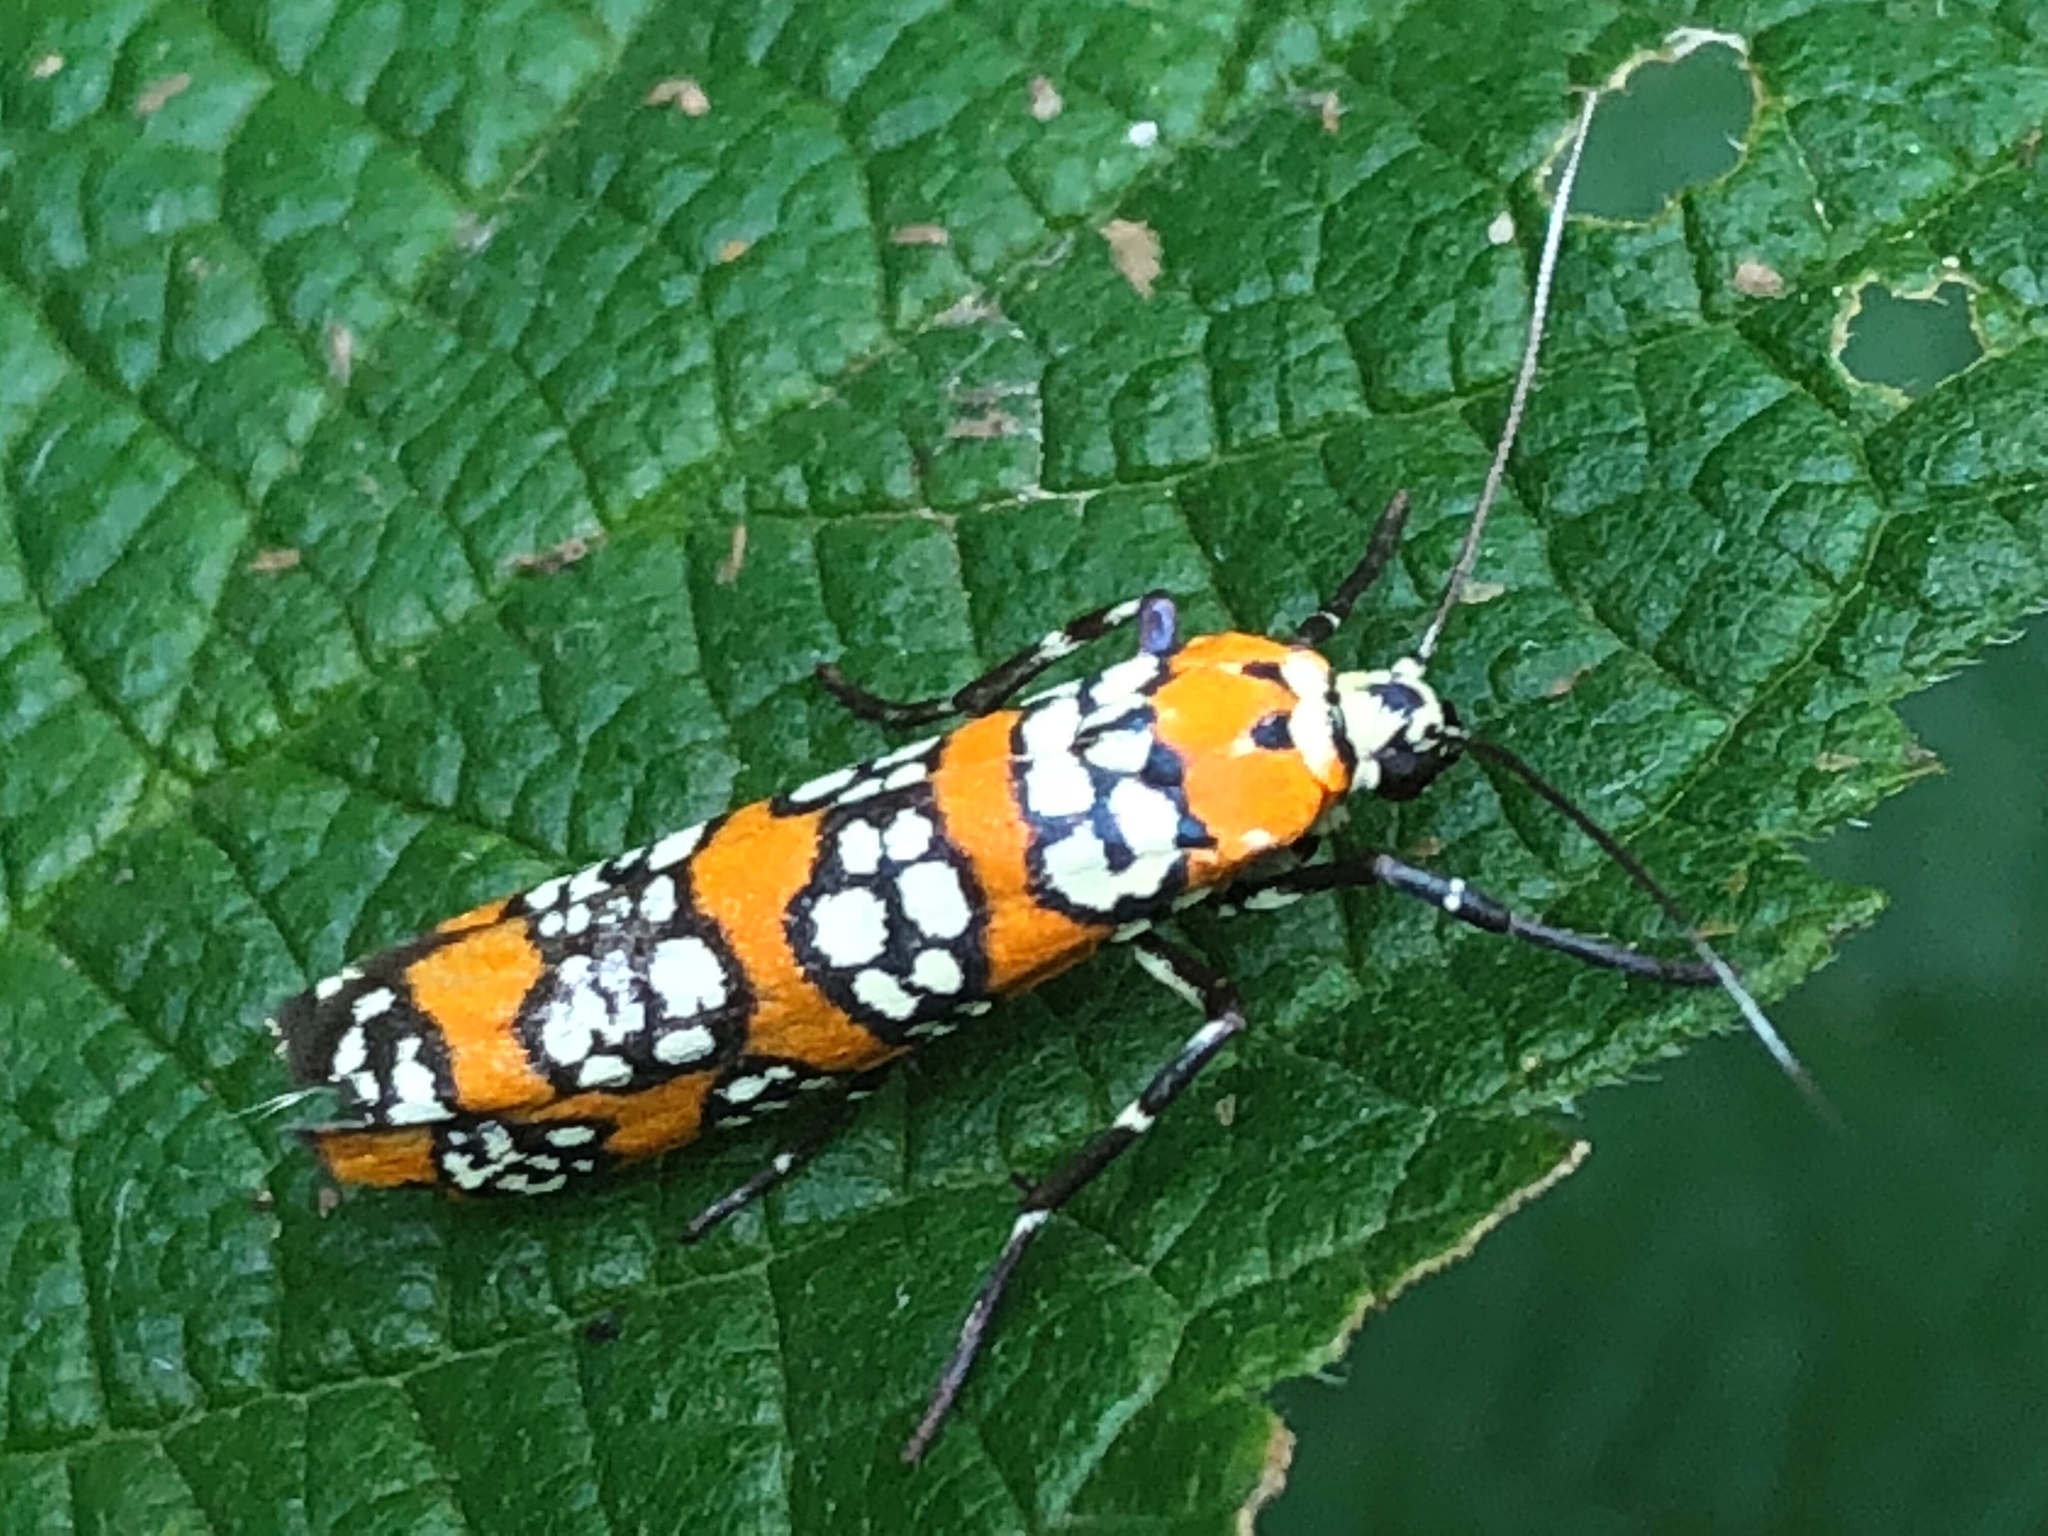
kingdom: Animalia
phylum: Arthropoda
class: Insecta
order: Lepidoptera
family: Attevidae
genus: Atteva
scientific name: Atteva punctella
